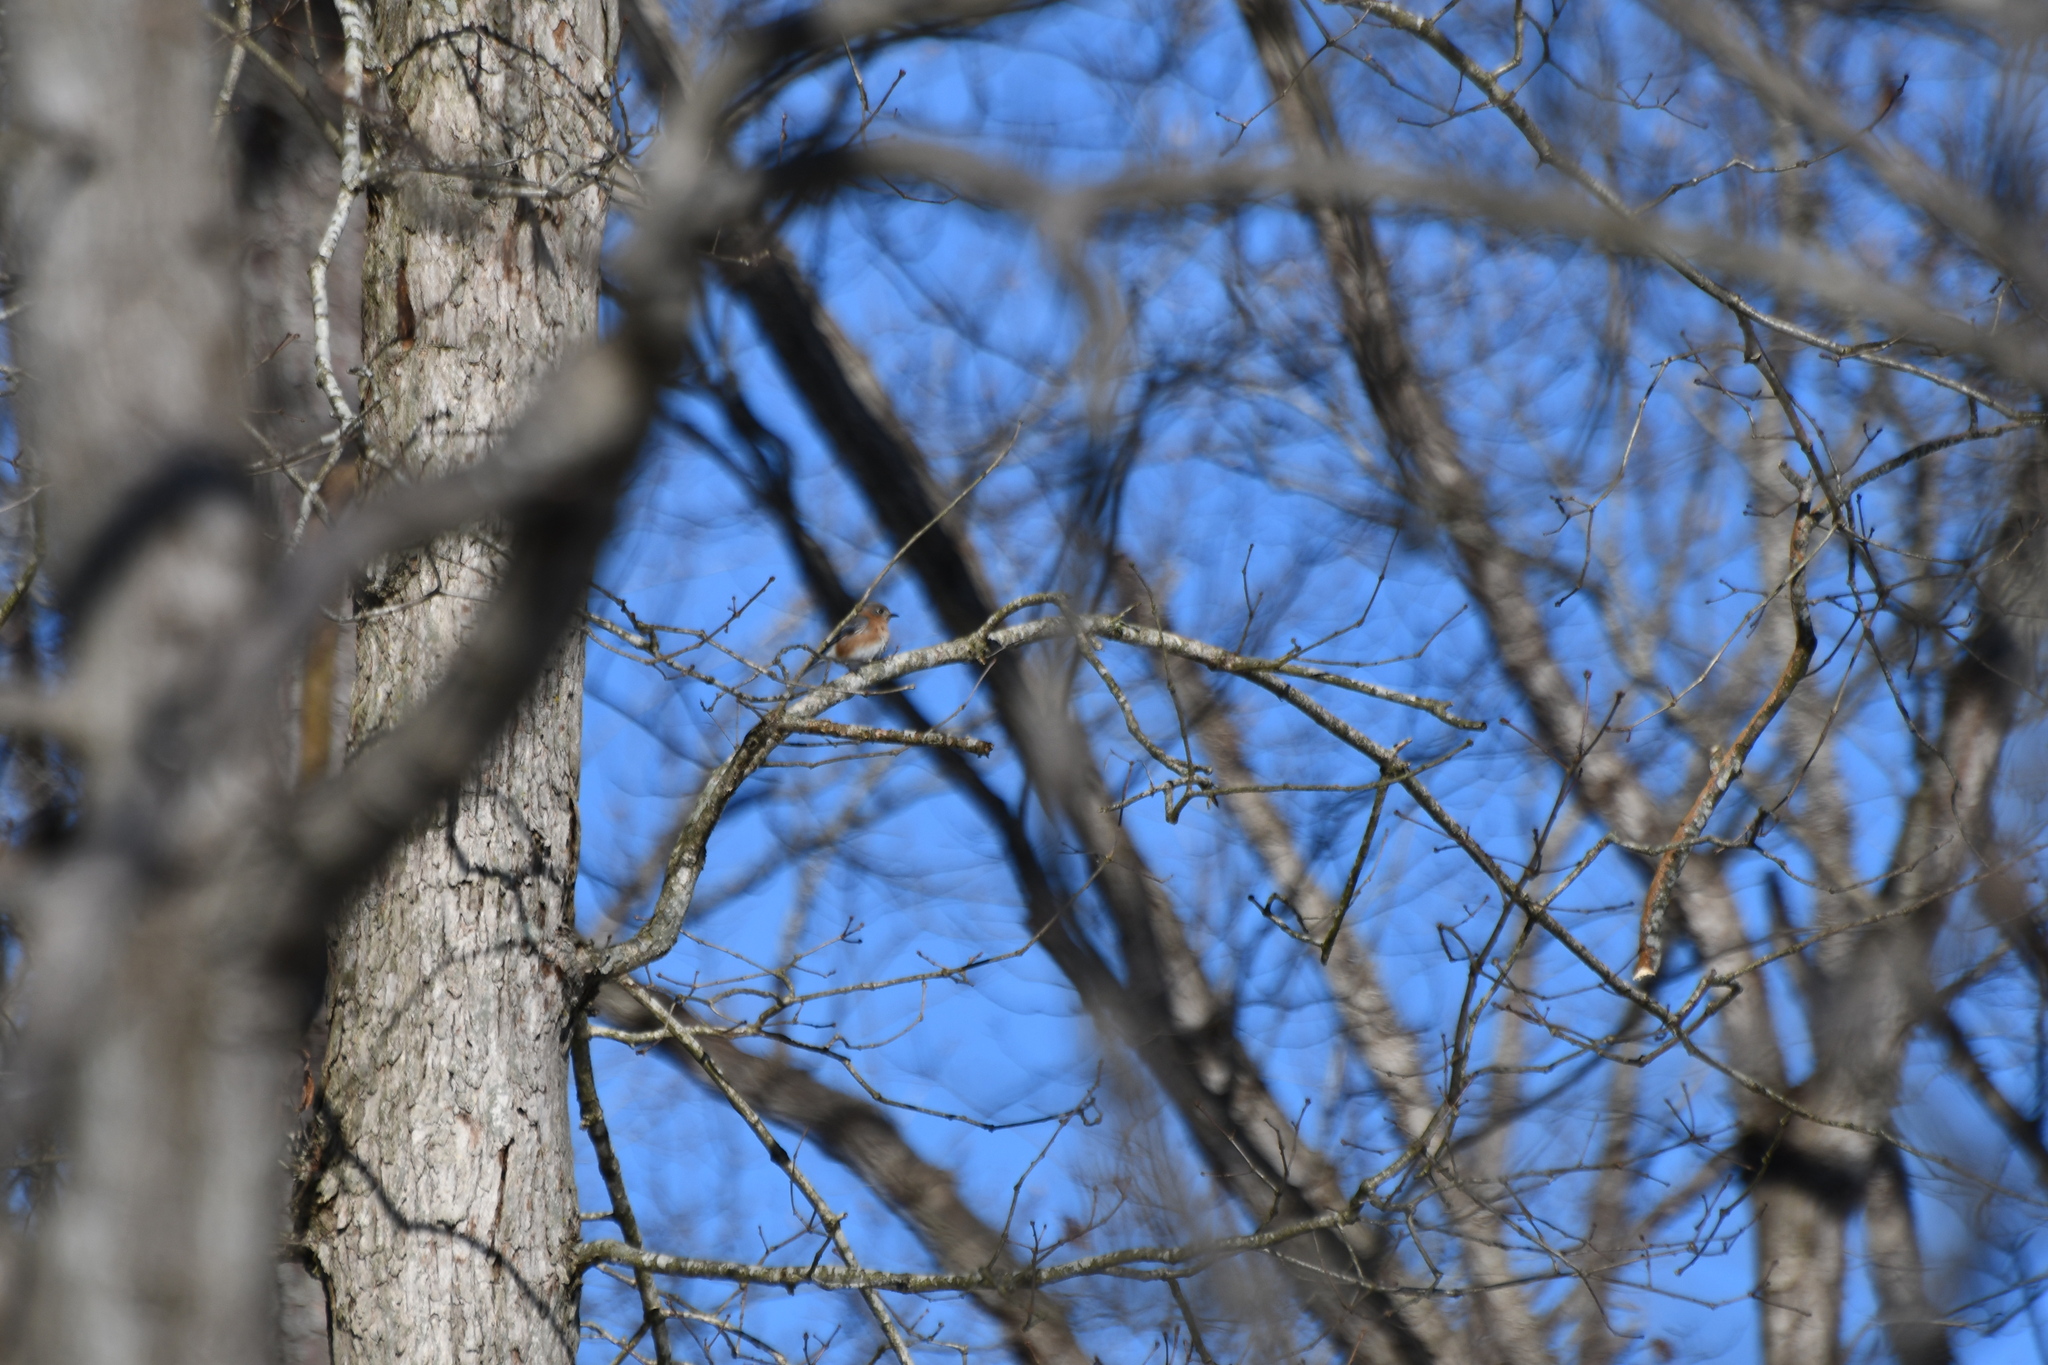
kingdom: Animalia
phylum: Chordata
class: Aves
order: Passeriformes
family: Turdidae
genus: Sialia
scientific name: Sialia sialis
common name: Eastern bluebird
